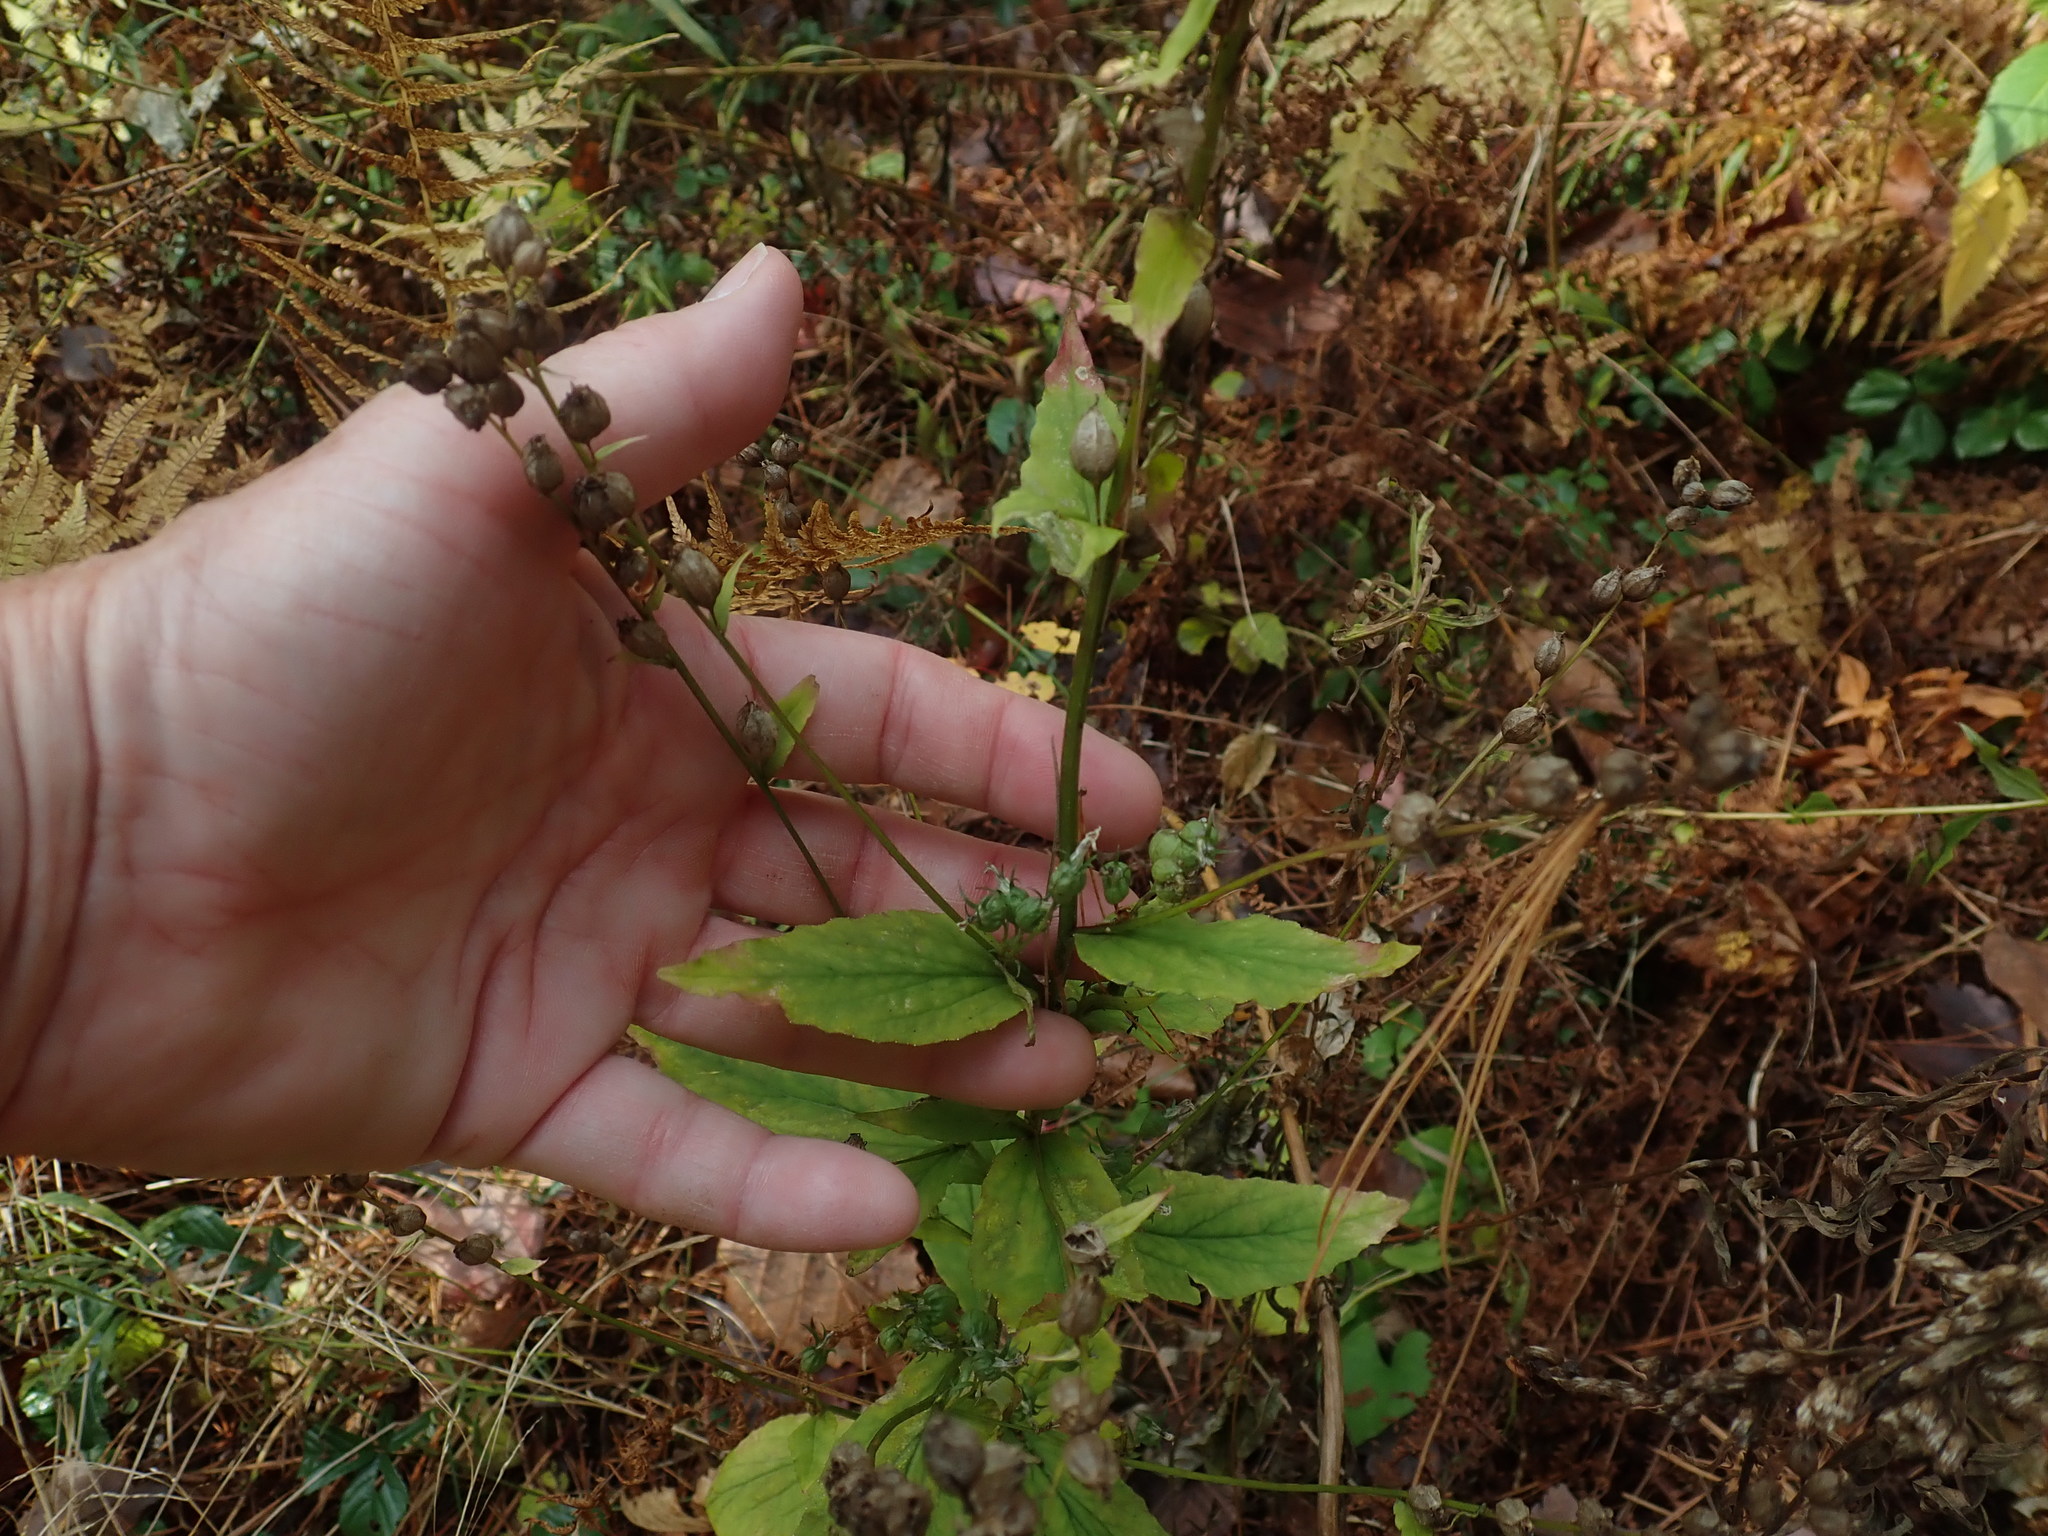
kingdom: Plantae
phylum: Tracheophyta
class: Magnoliopsida
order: Asterales
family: Campanulaceae
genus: Lobelia
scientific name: Lobelia inflata
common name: Indian tobacco
